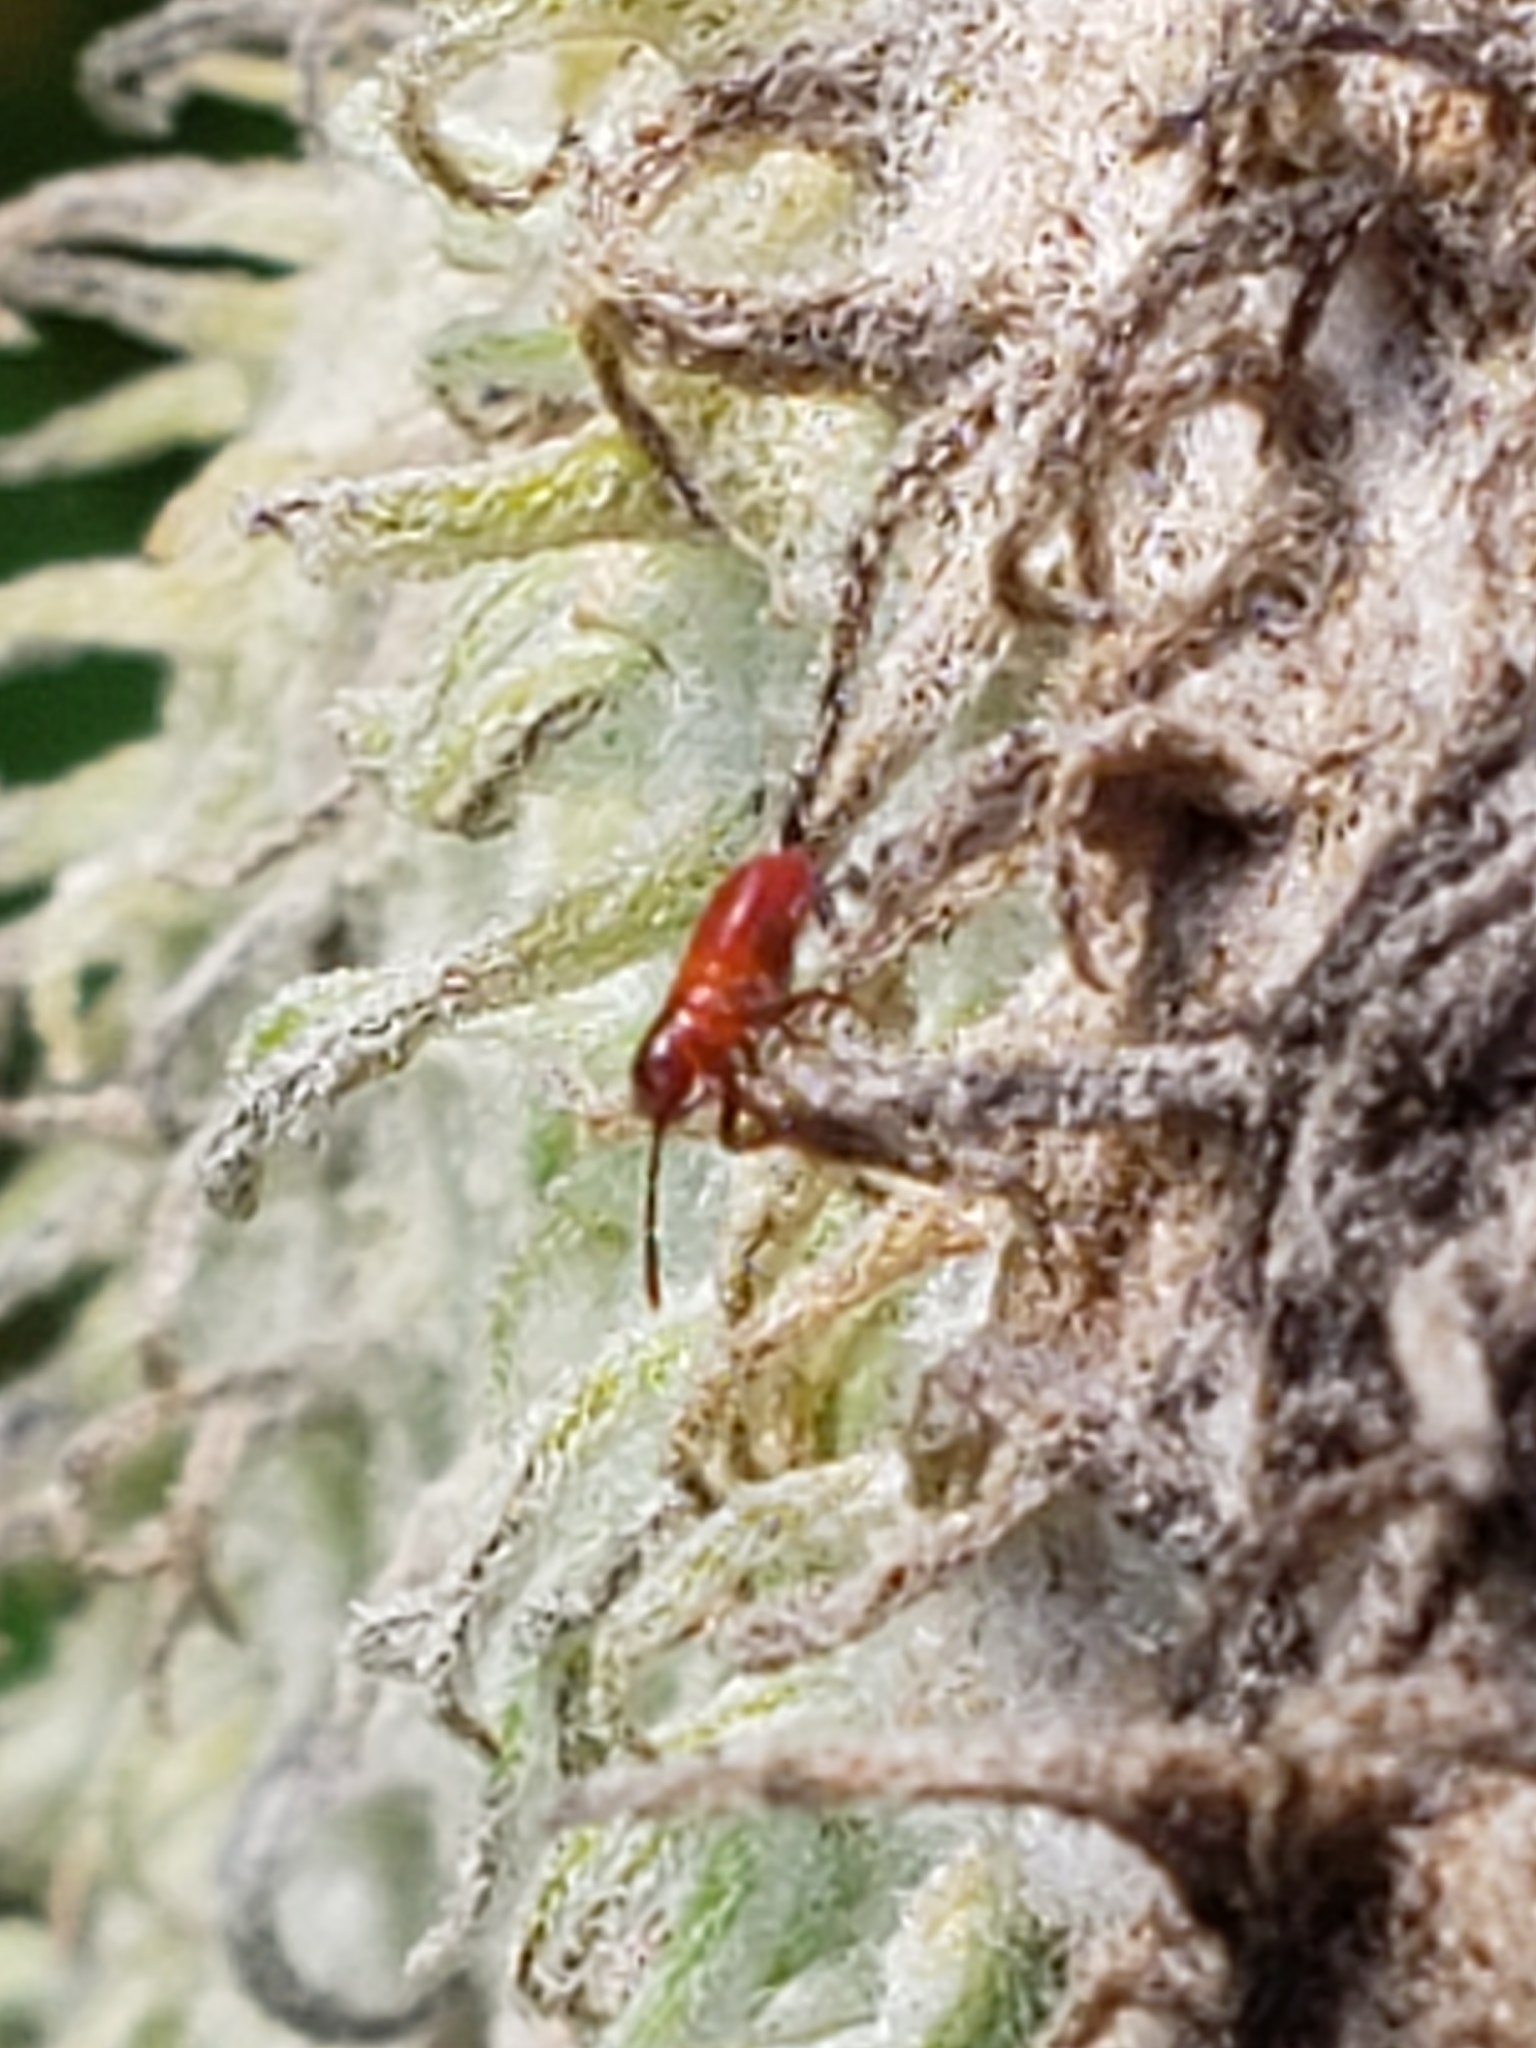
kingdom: Animalia
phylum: Arthropoda
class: Insecta
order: Hemiptera
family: Lygaeidae
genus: Oncopeltus
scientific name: Oncopeltus fasciatus
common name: Large milkweed bug
